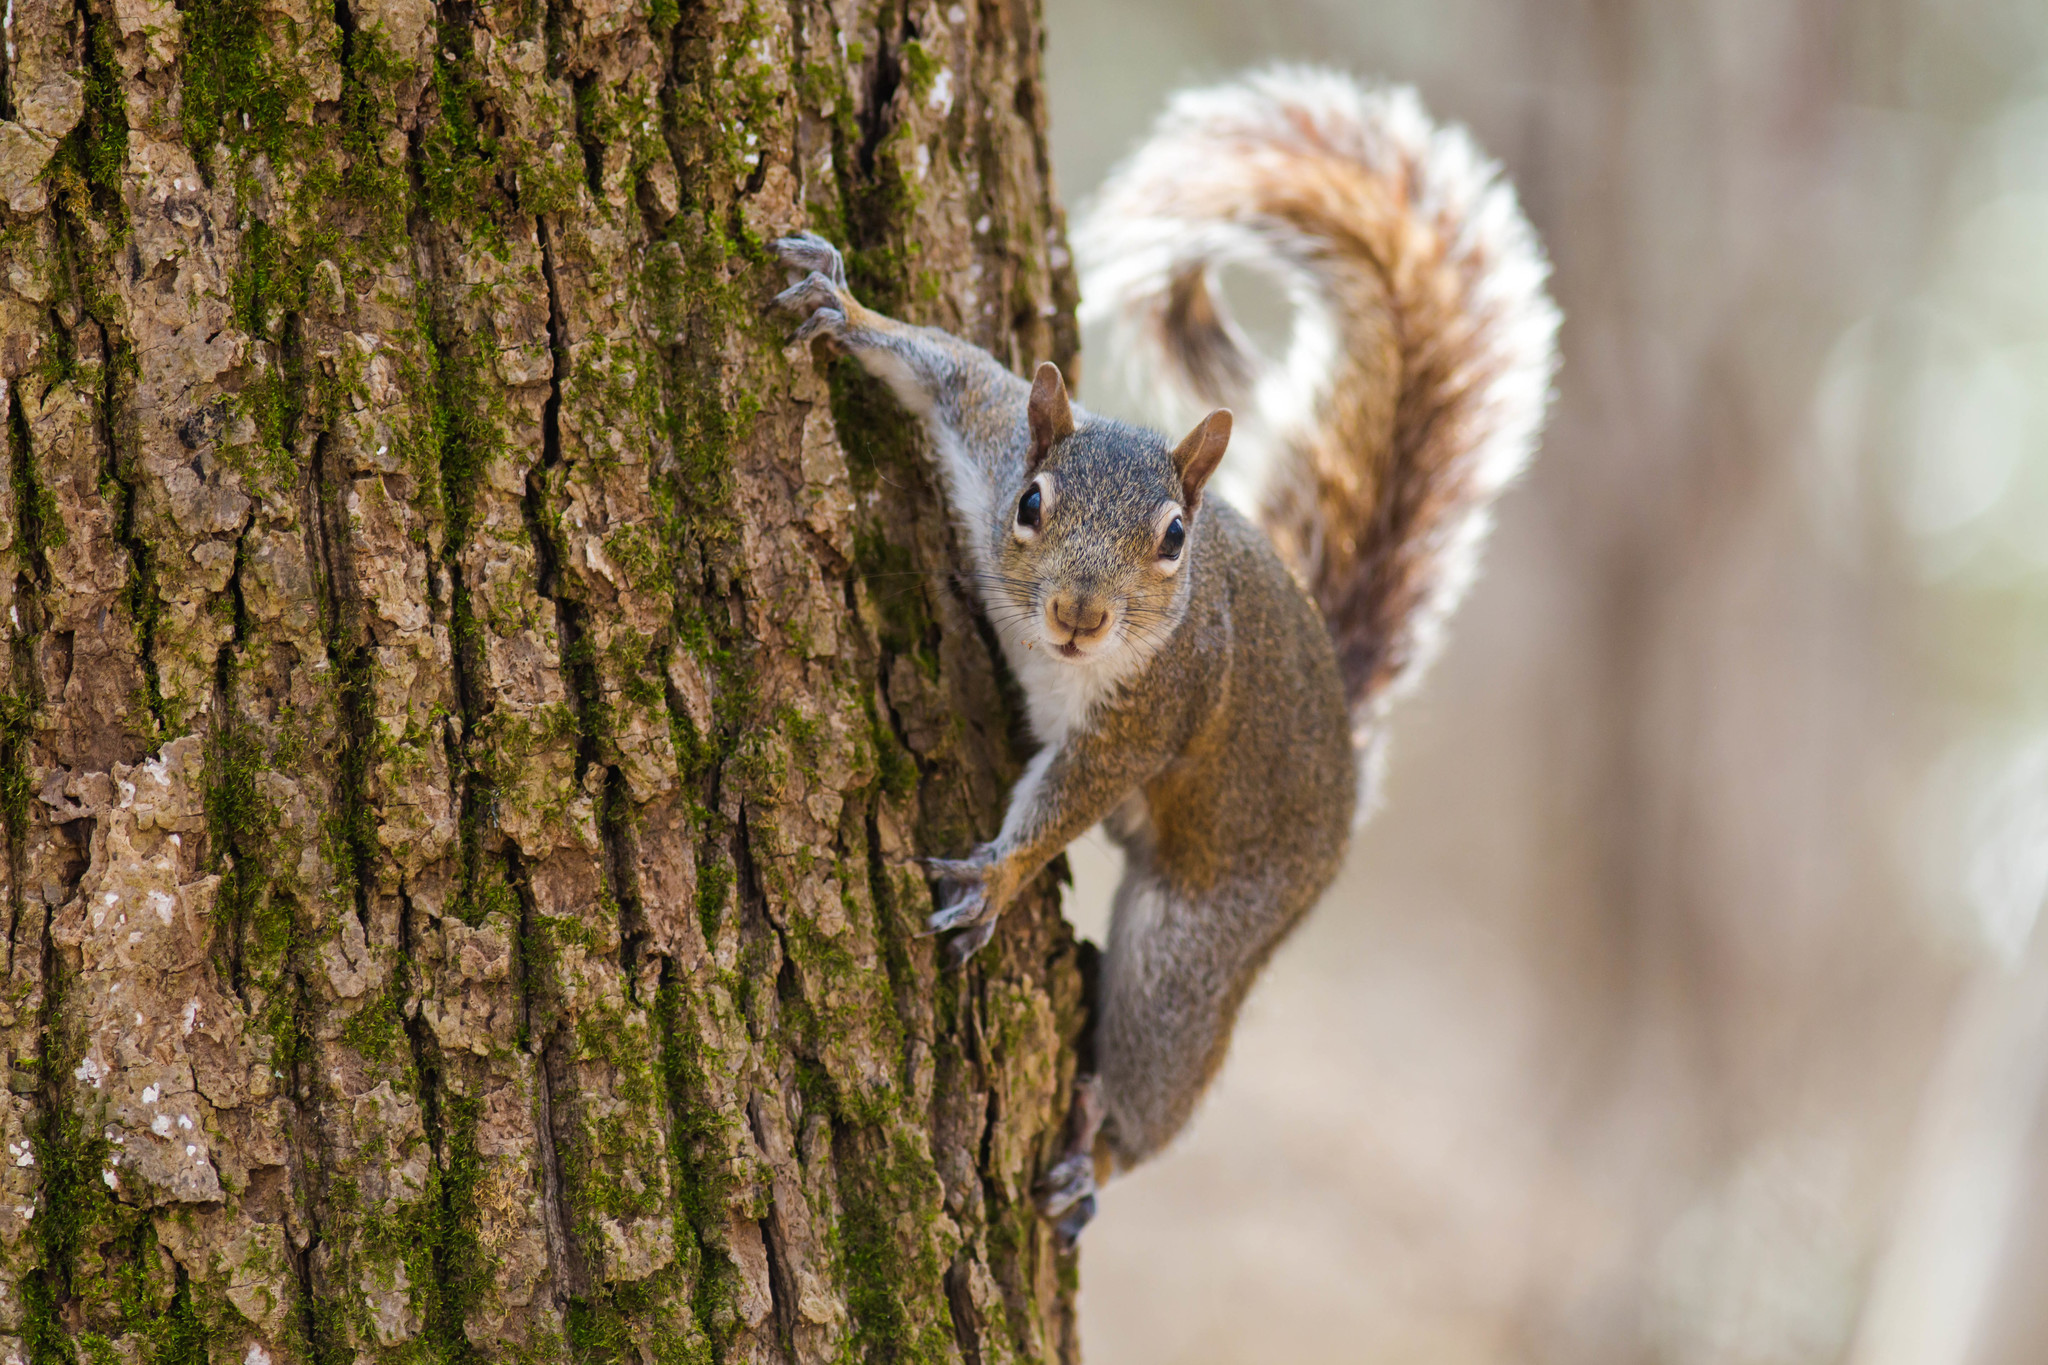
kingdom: Animalia
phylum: Chordata
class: Mammalia
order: Rodentia
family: Sciuridae
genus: Sciurus
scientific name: Sciurus carolinensis
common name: Eastern gray squirrel
